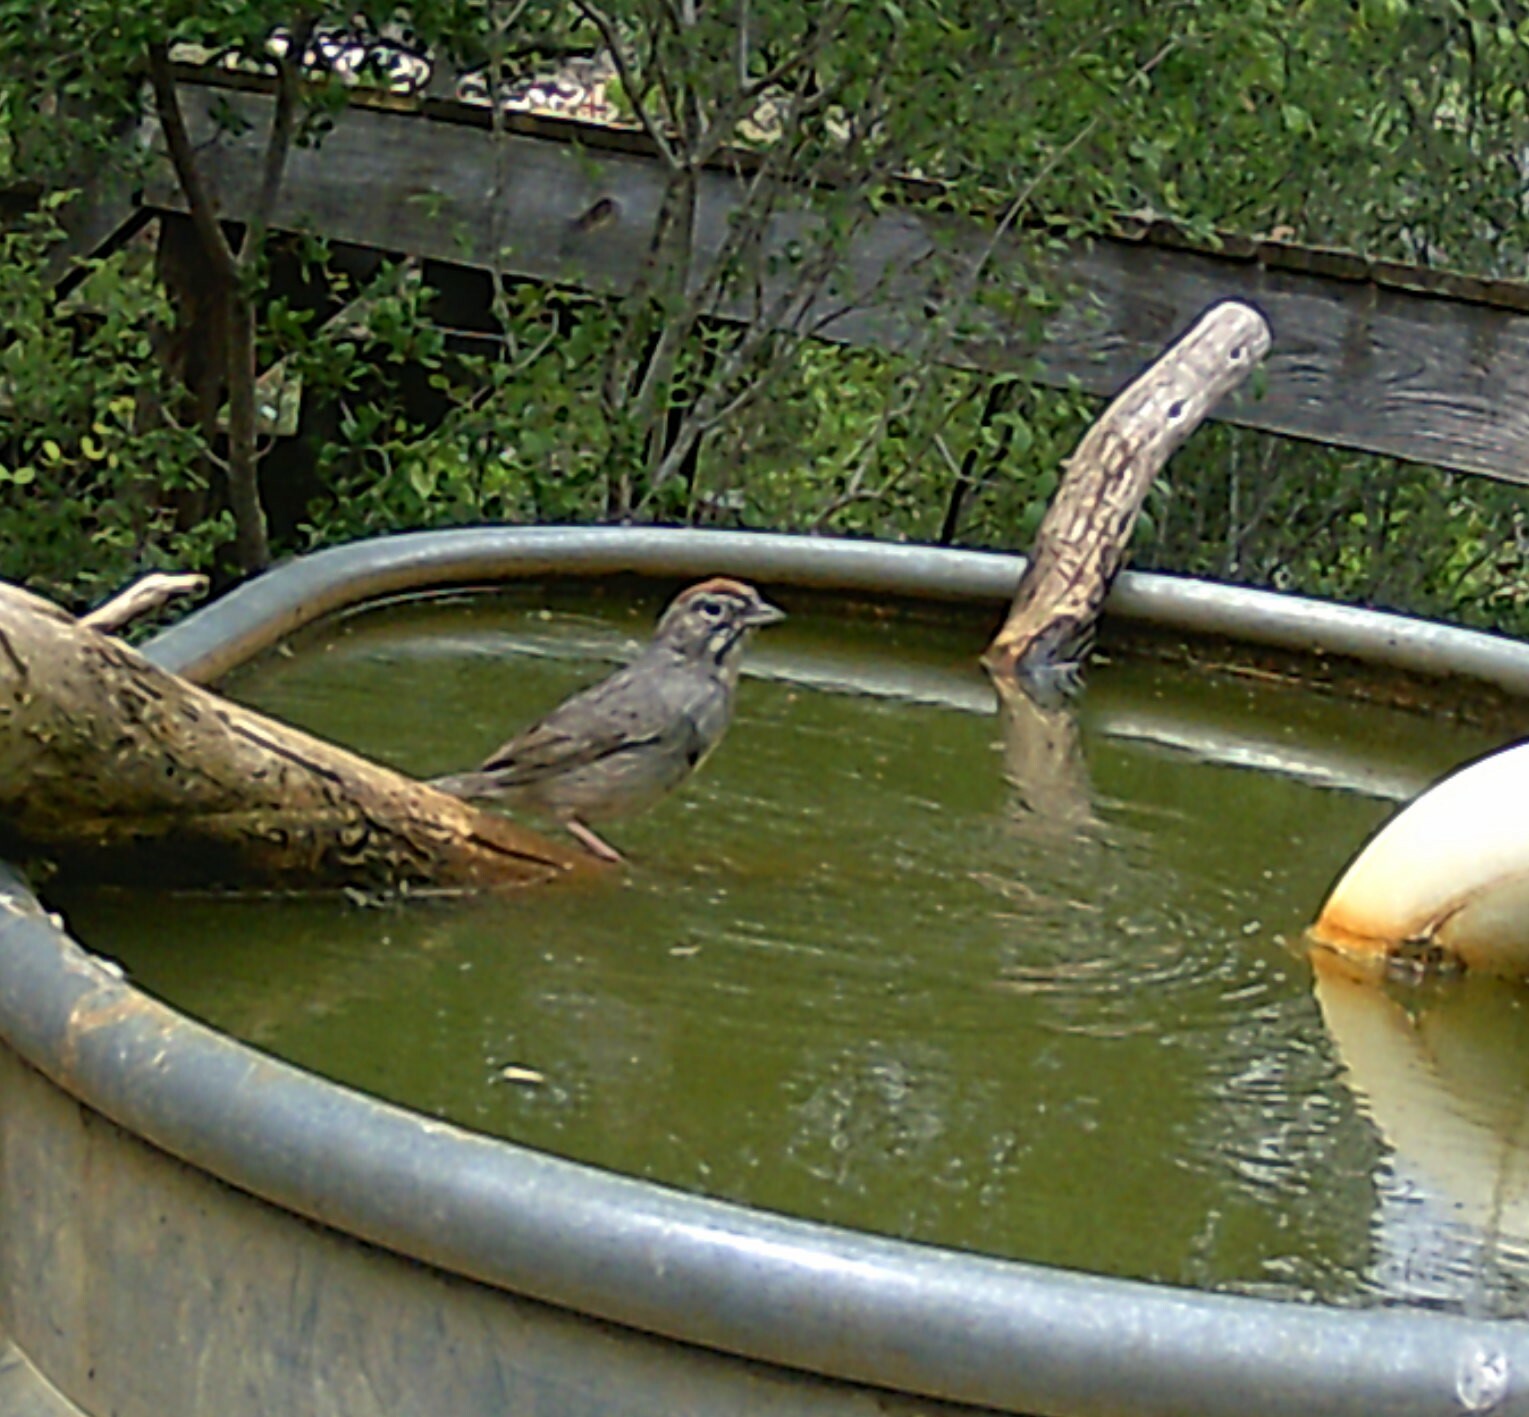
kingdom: Animalia
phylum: Chordata
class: Aves
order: Passeriformes
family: Passerellidae
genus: Aimophila
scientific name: Aimophila ruficeps
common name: Rufous-crowned sparrow
